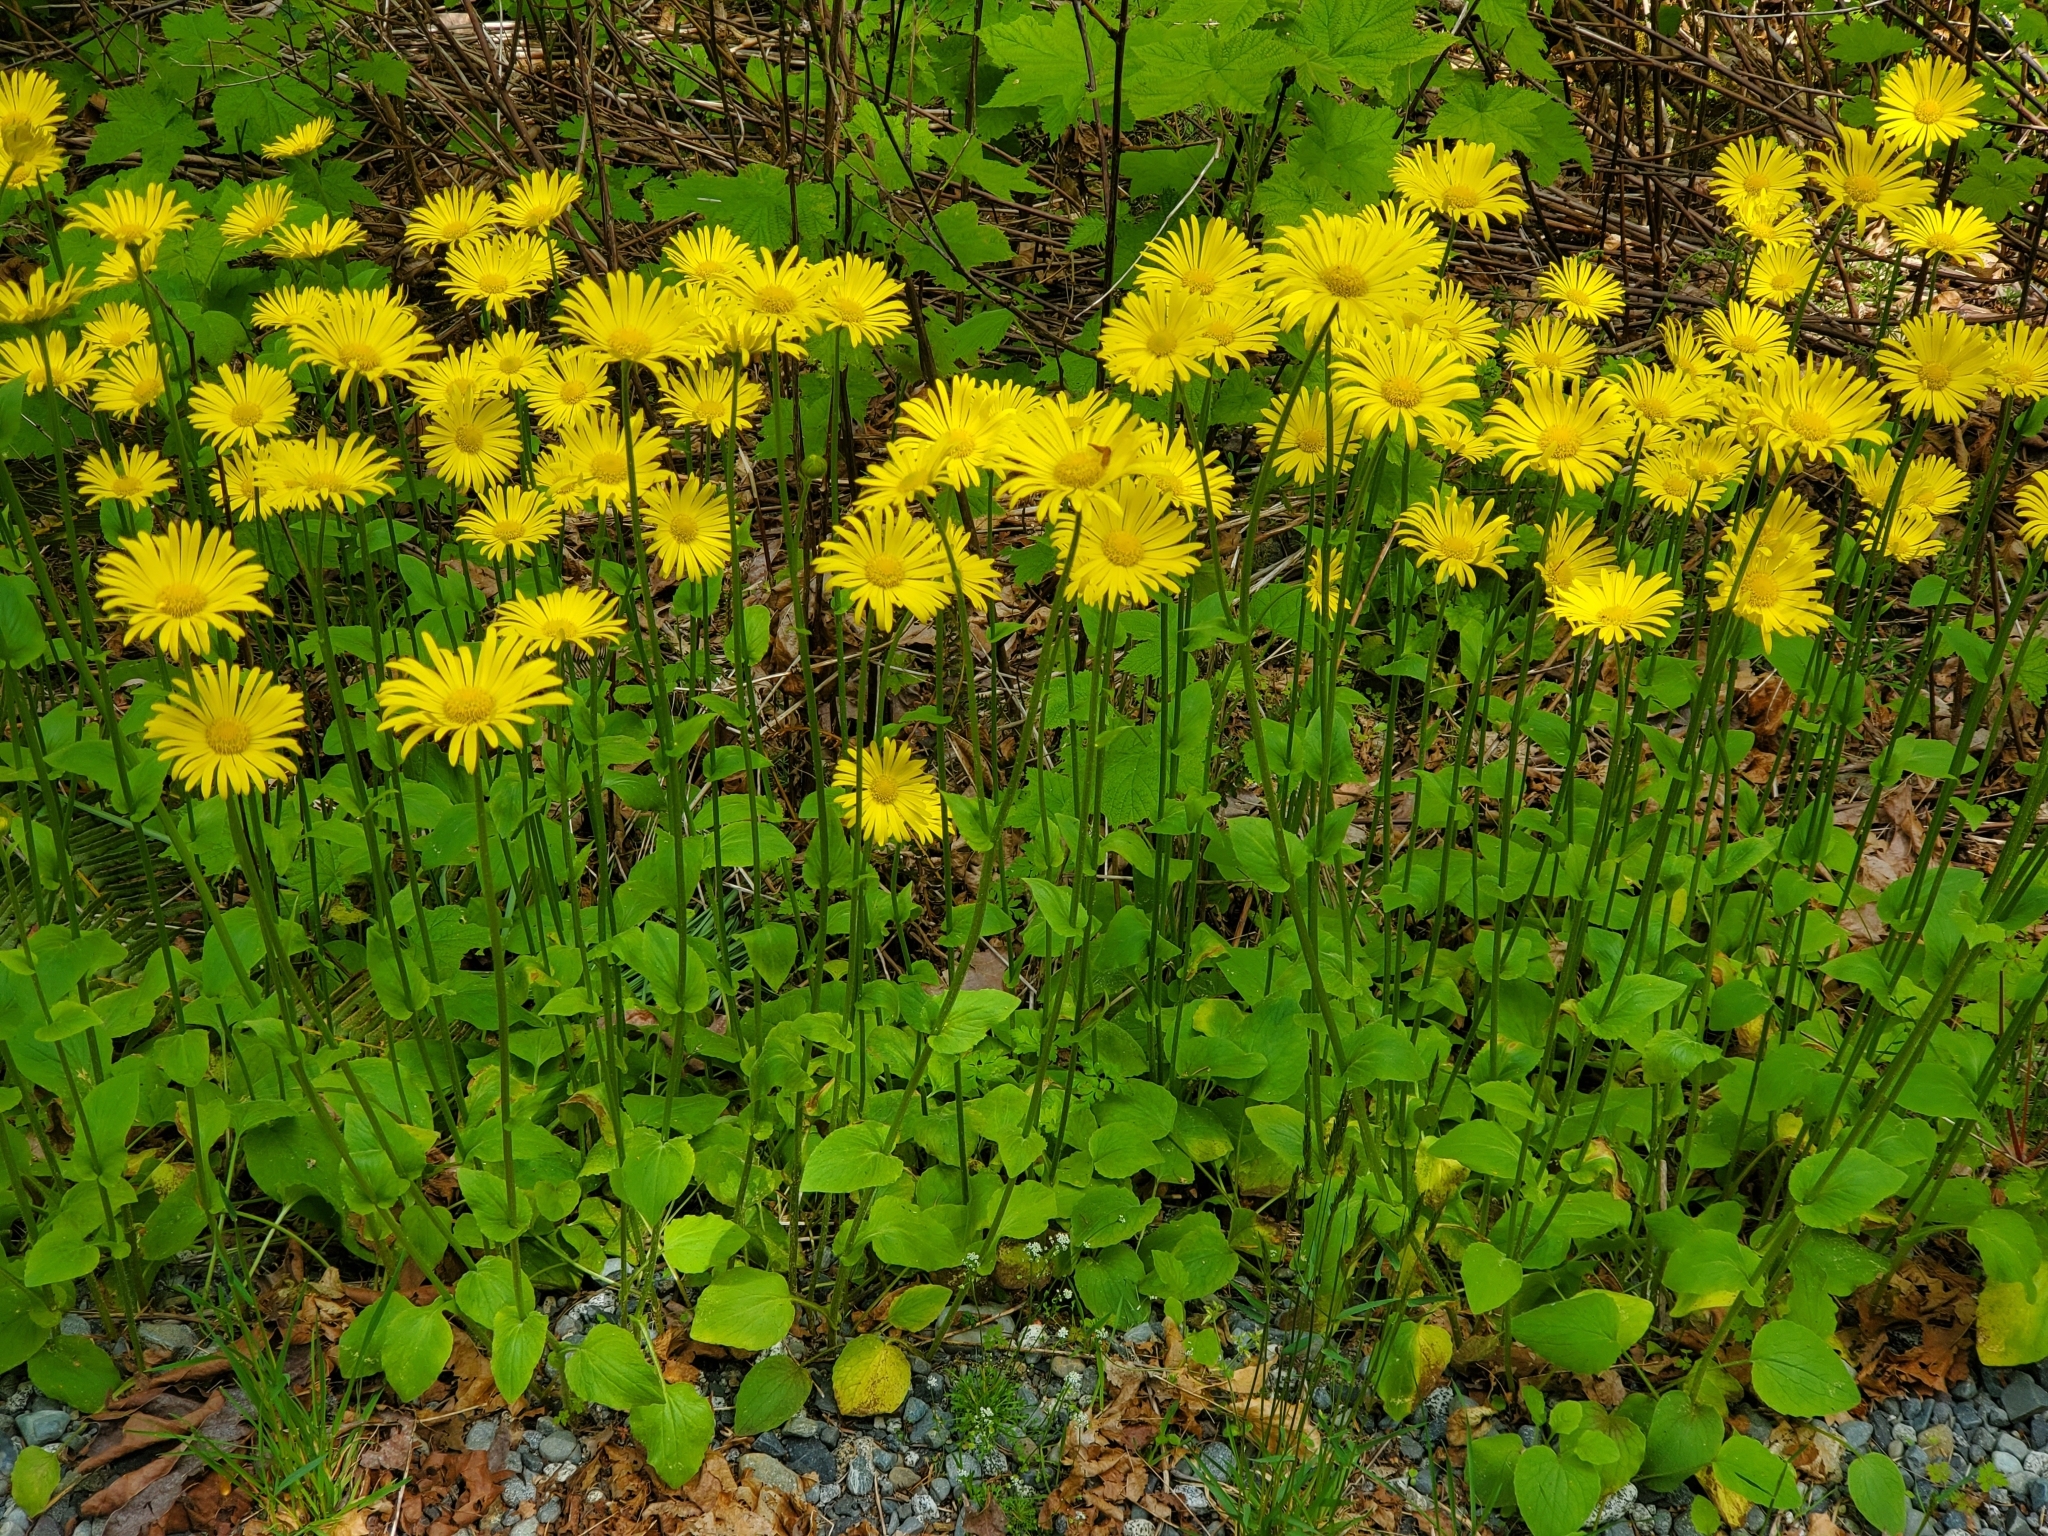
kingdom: Plantae
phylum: Tracheophyta
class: Magnoliopsida
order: Asterales
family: Asteraceae
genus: Doronicum
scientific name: Doronicum pardalianches
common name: Leopard's-bane
